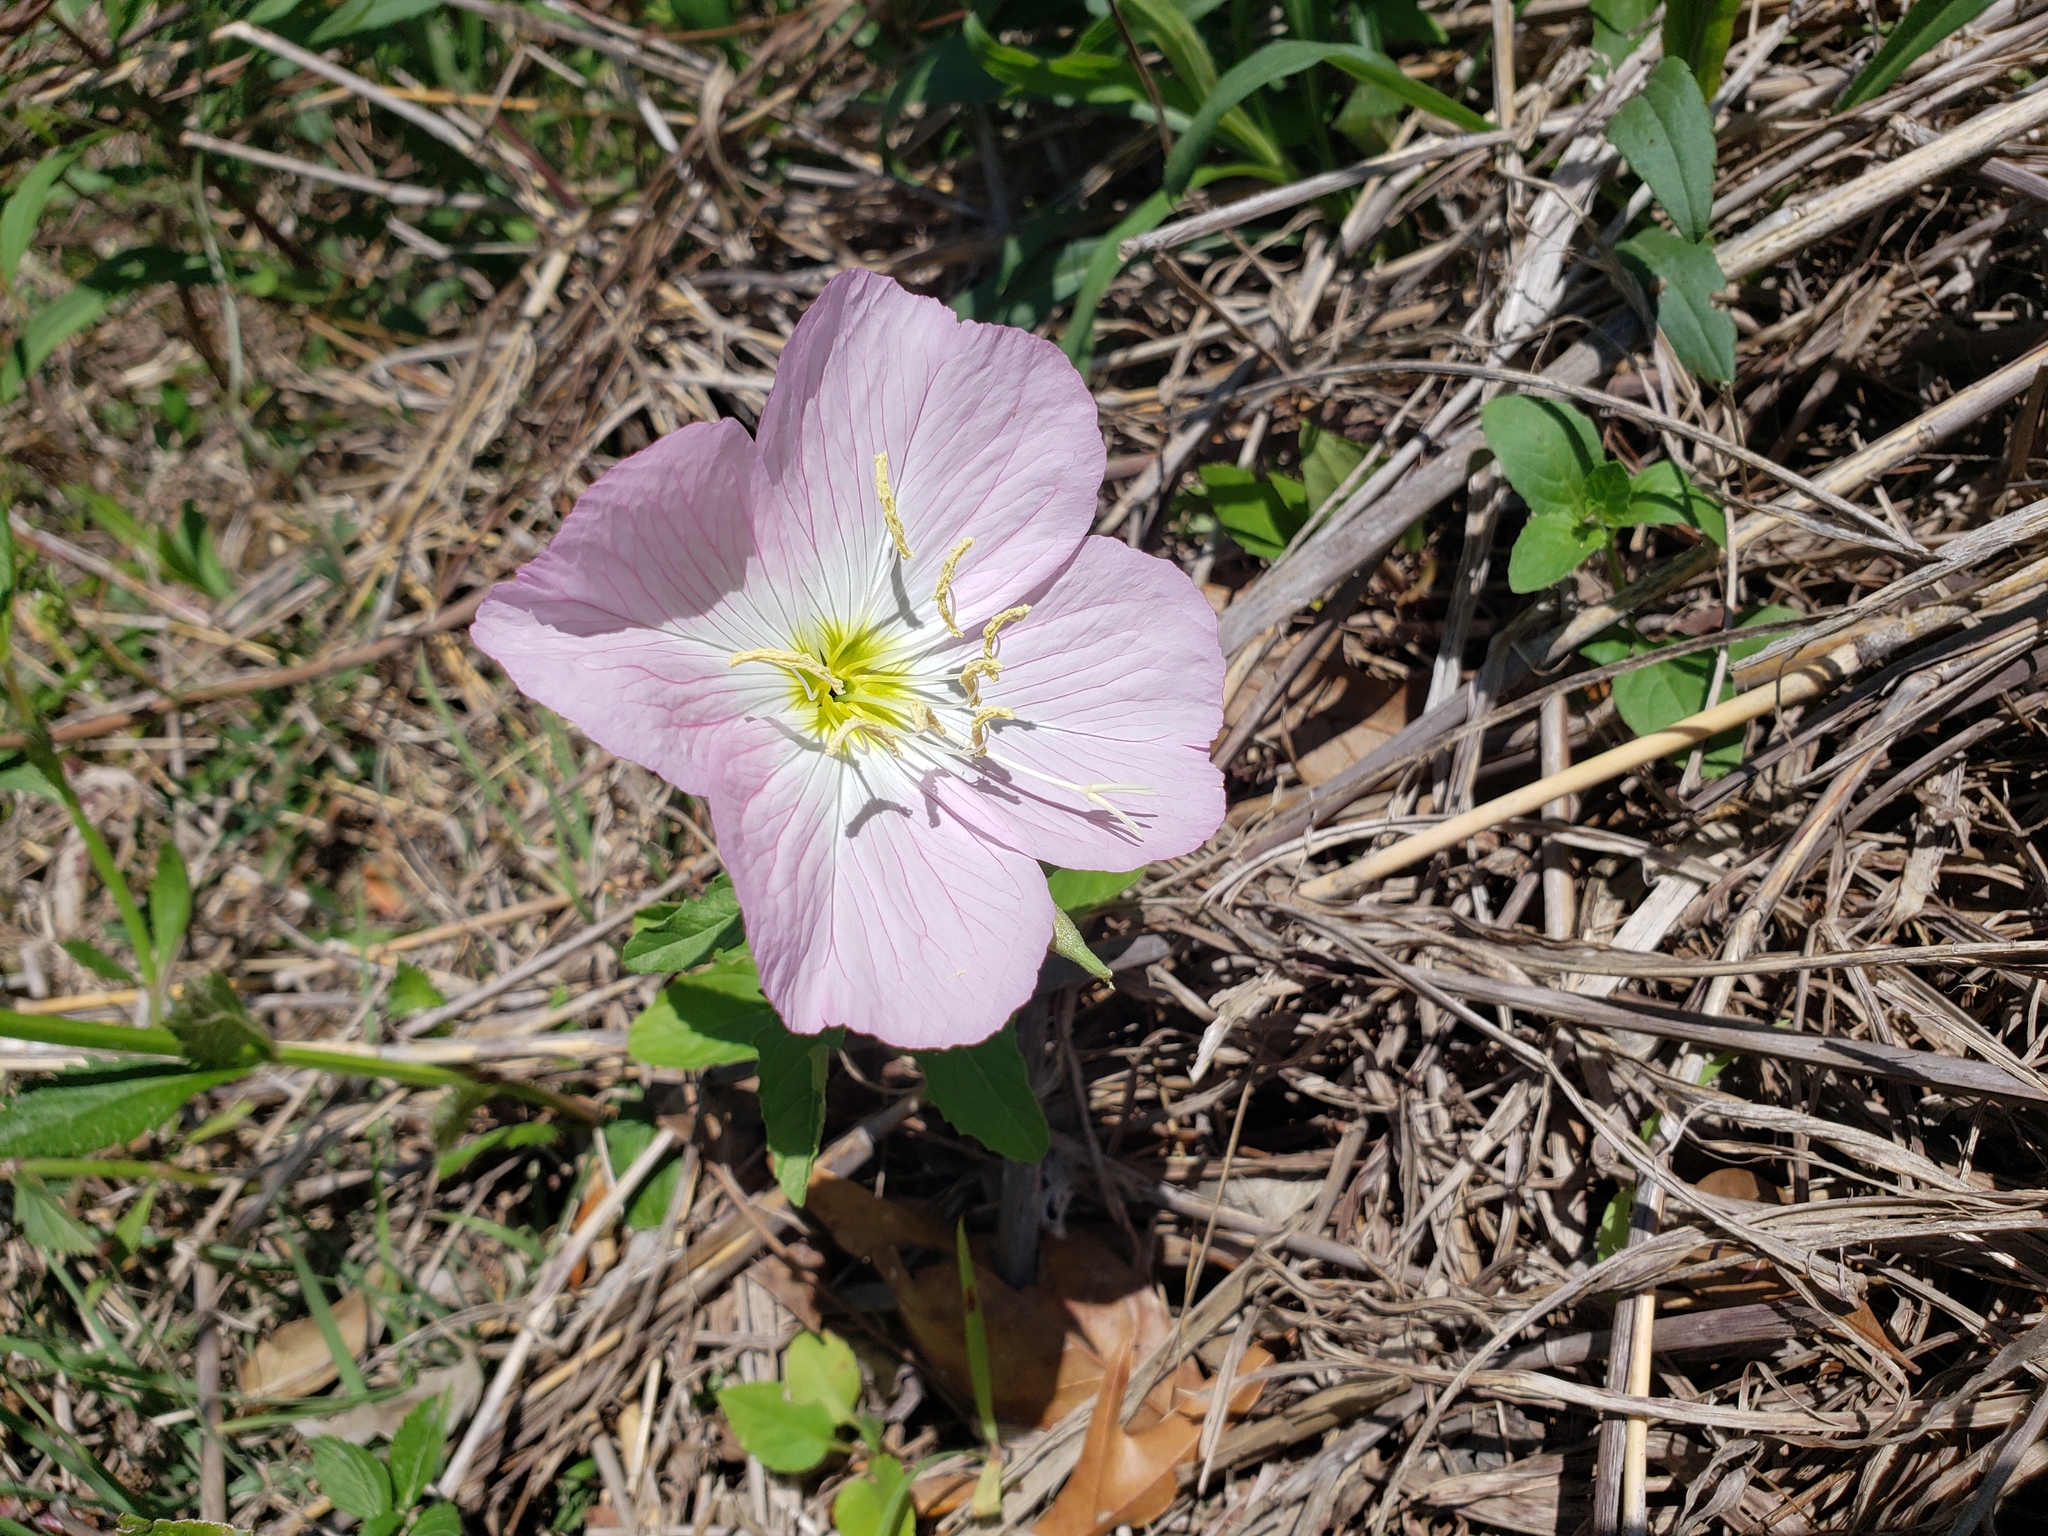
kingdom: Plantae
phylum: Tracheophyta
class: Magnoliopsida
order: Myrtales
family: Onagraceae
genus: Oenothera
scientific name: Oenothera speciosa
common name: White evening-primrose
